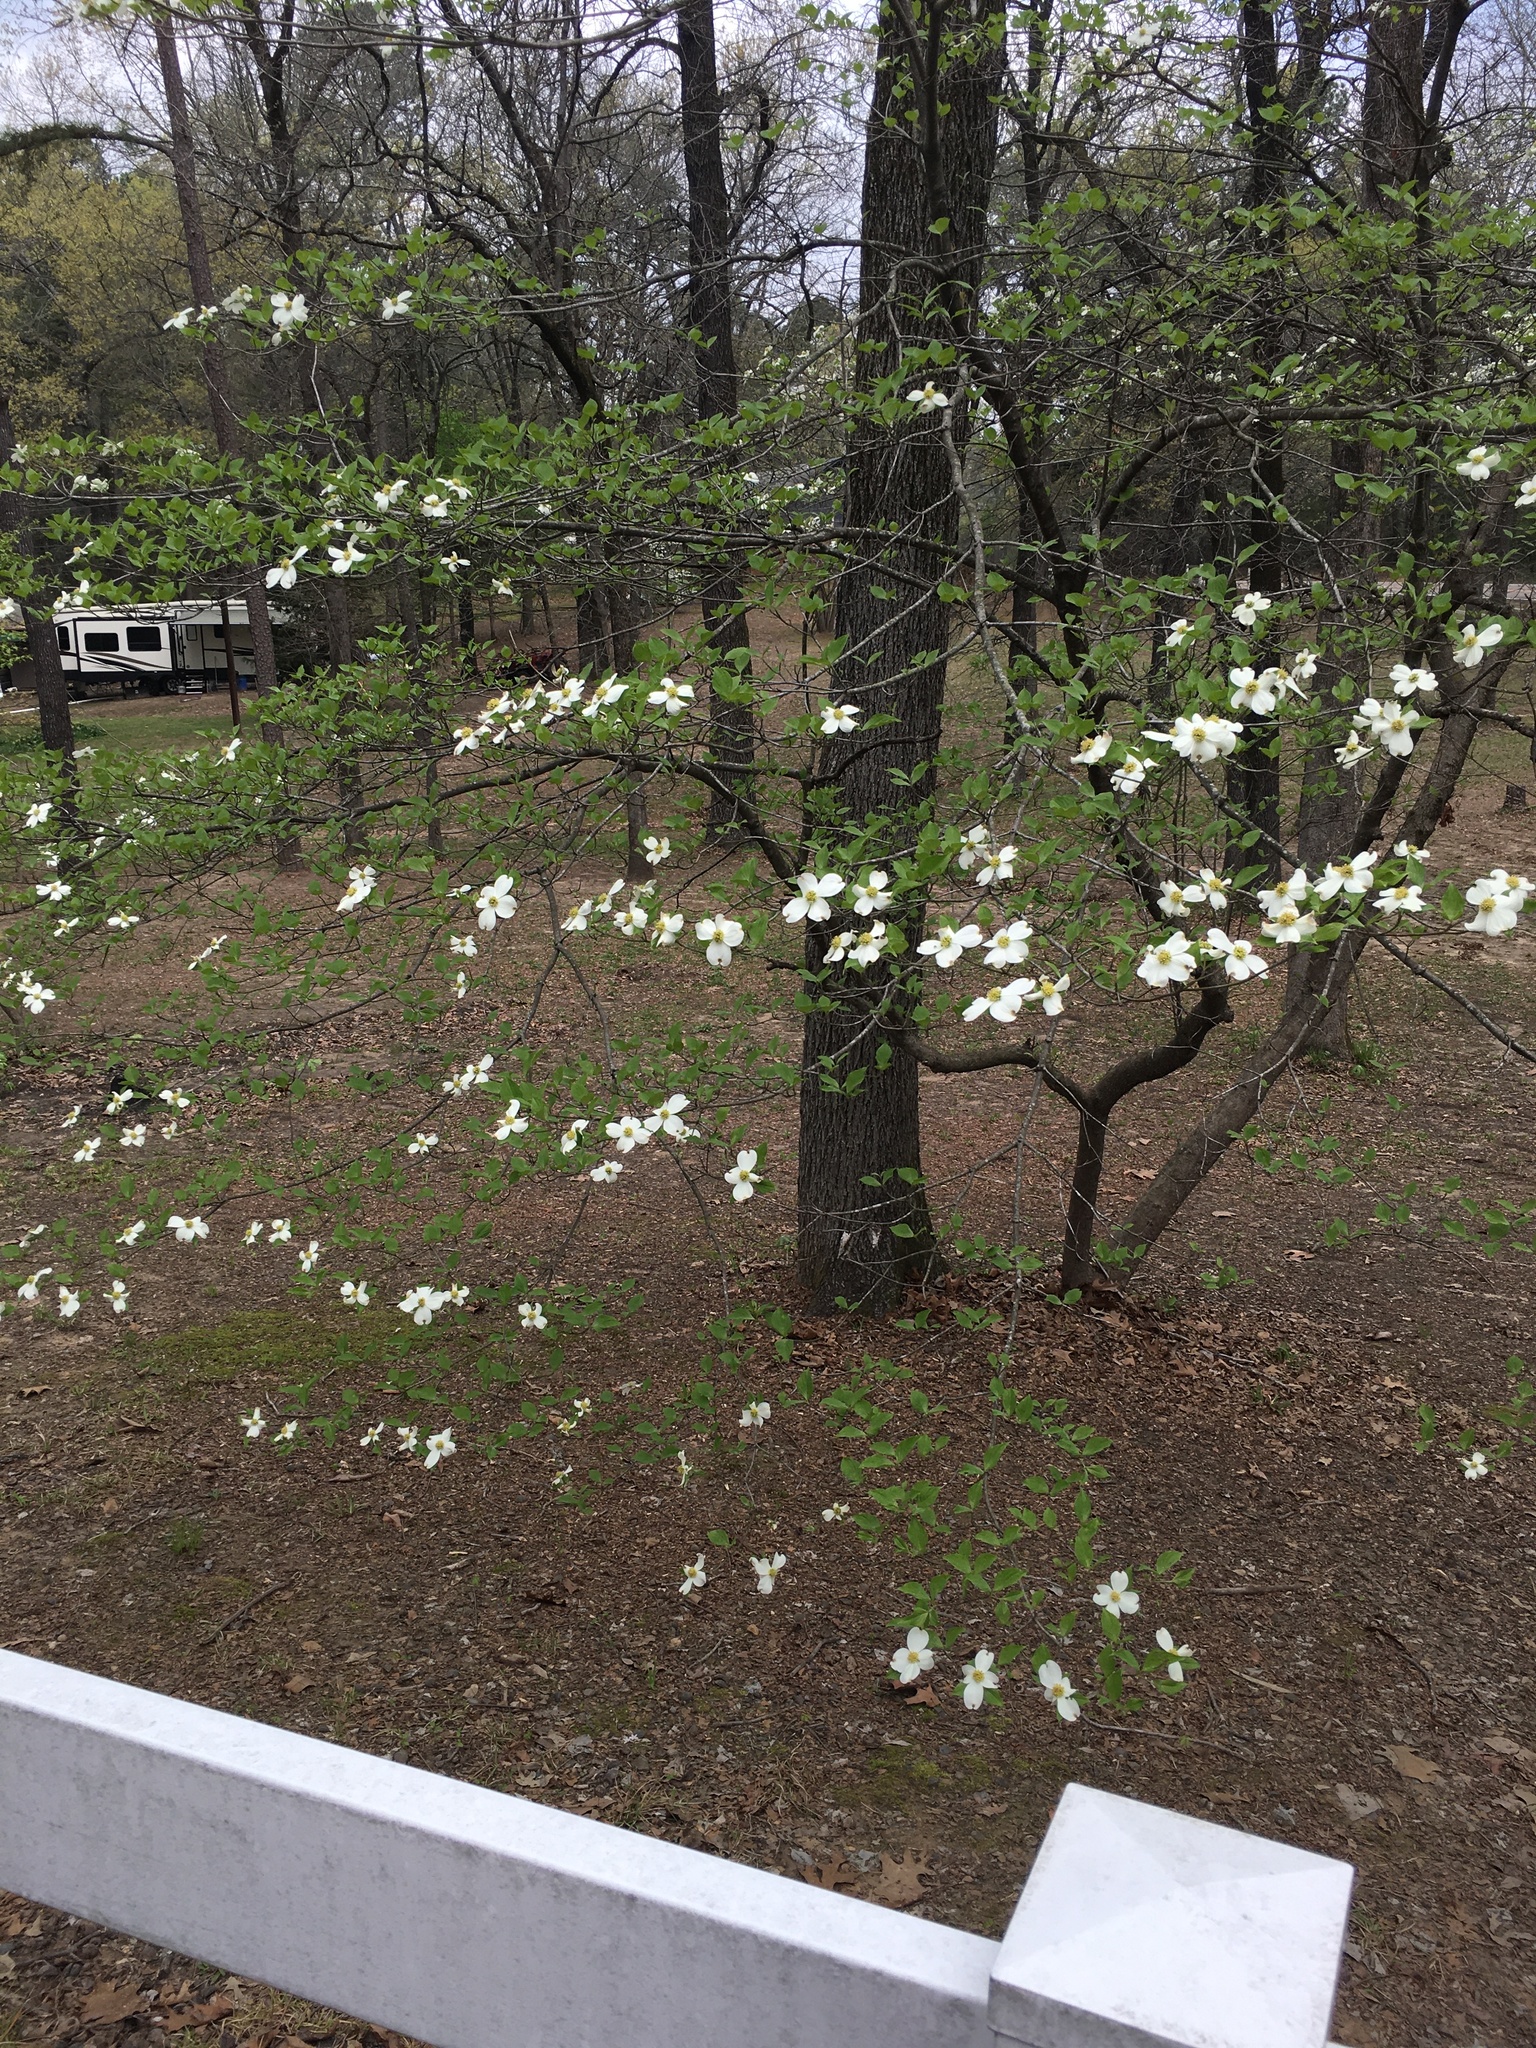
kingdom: Plantae
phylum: Tracheophyta
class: Magnoliopsida
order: Cornales
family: Cornaceae
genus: Cornus
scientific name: Cornus florida
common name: Flowering dogwood
